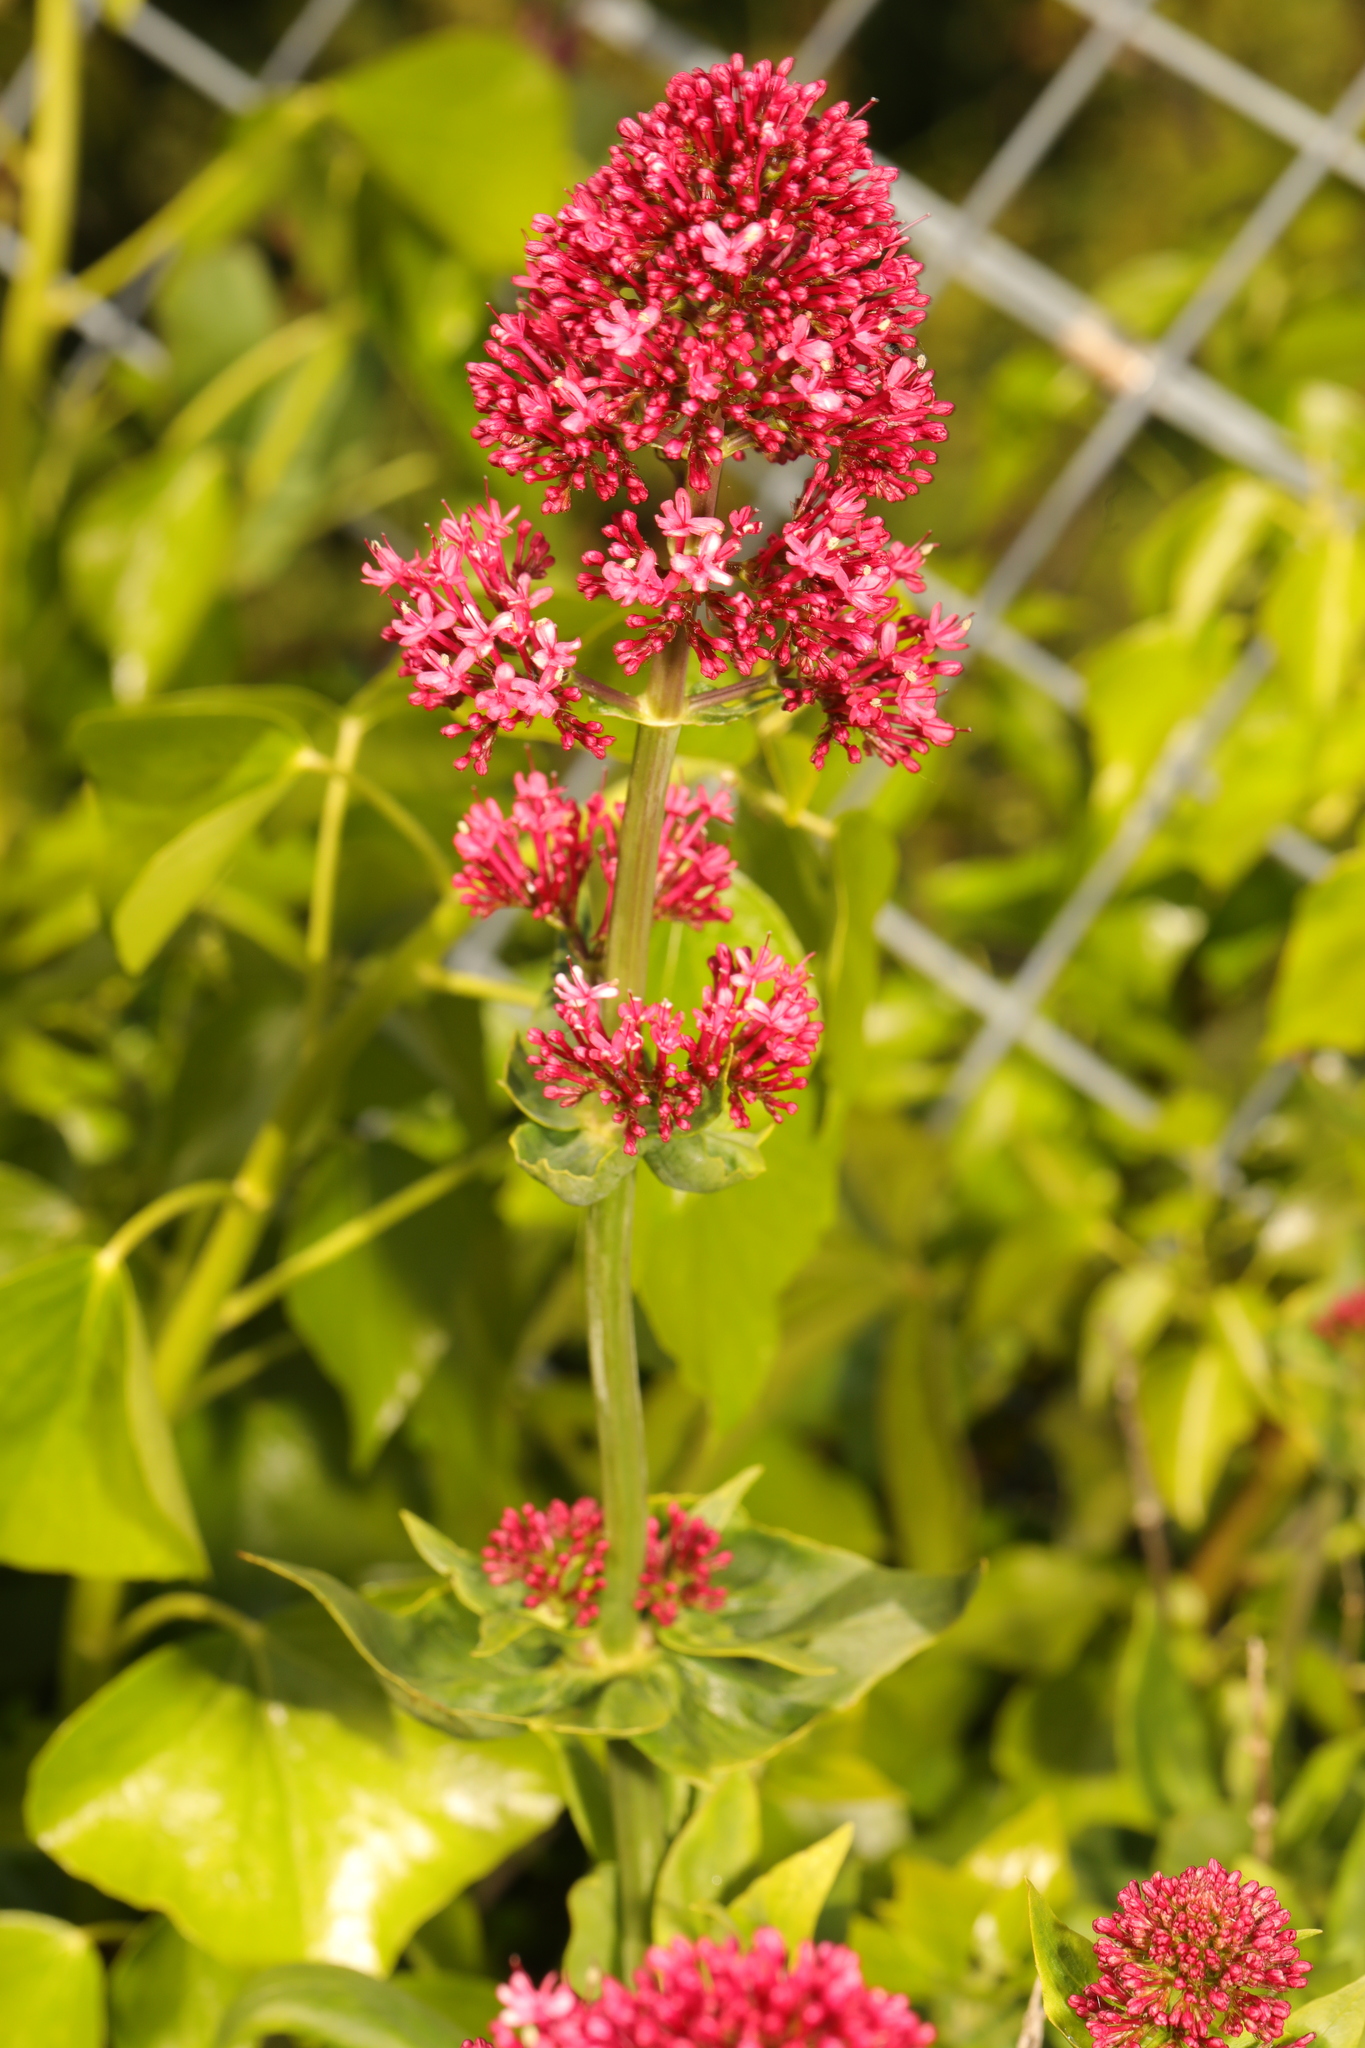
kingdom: Plantae
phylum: Tracheophyta
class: Magnoliopsida
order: Dipsacales
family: Caprifoliaceae
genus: Centranthus
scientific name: Centranthus ruber
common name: Red valerian
